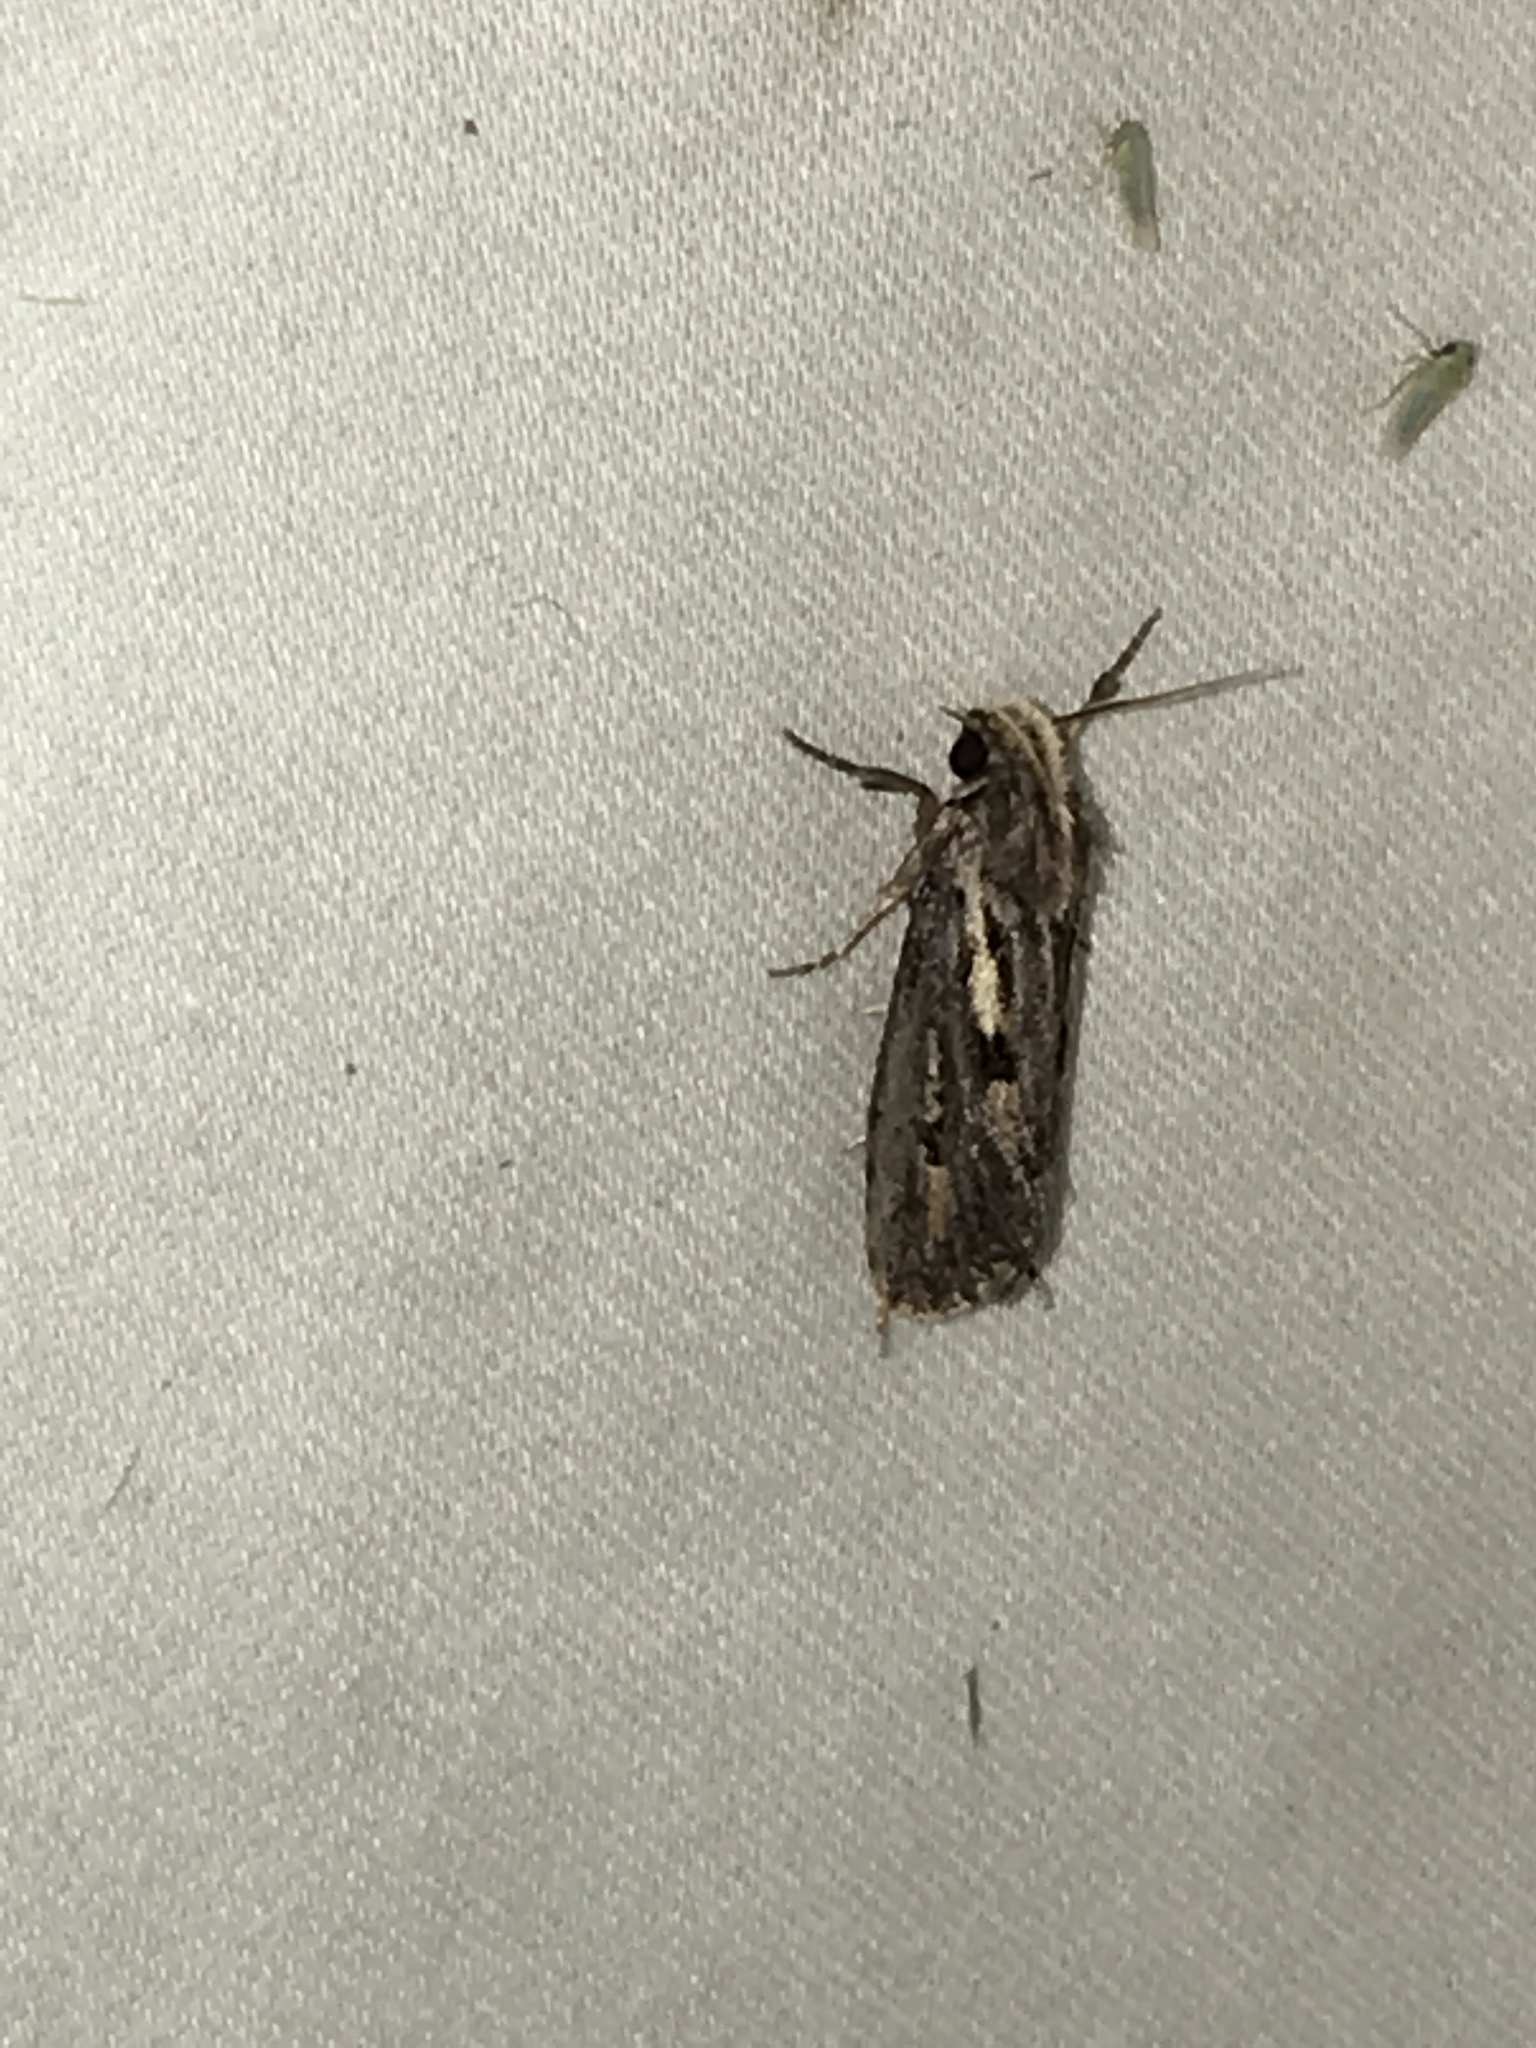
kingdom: Animalia
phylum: Arthropoda
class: Insecta
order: Lepidoptera
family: Tineidae
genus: Acrolophus
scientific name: Acrolophus popeanella
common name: Clemens' grass tubeworm moth
